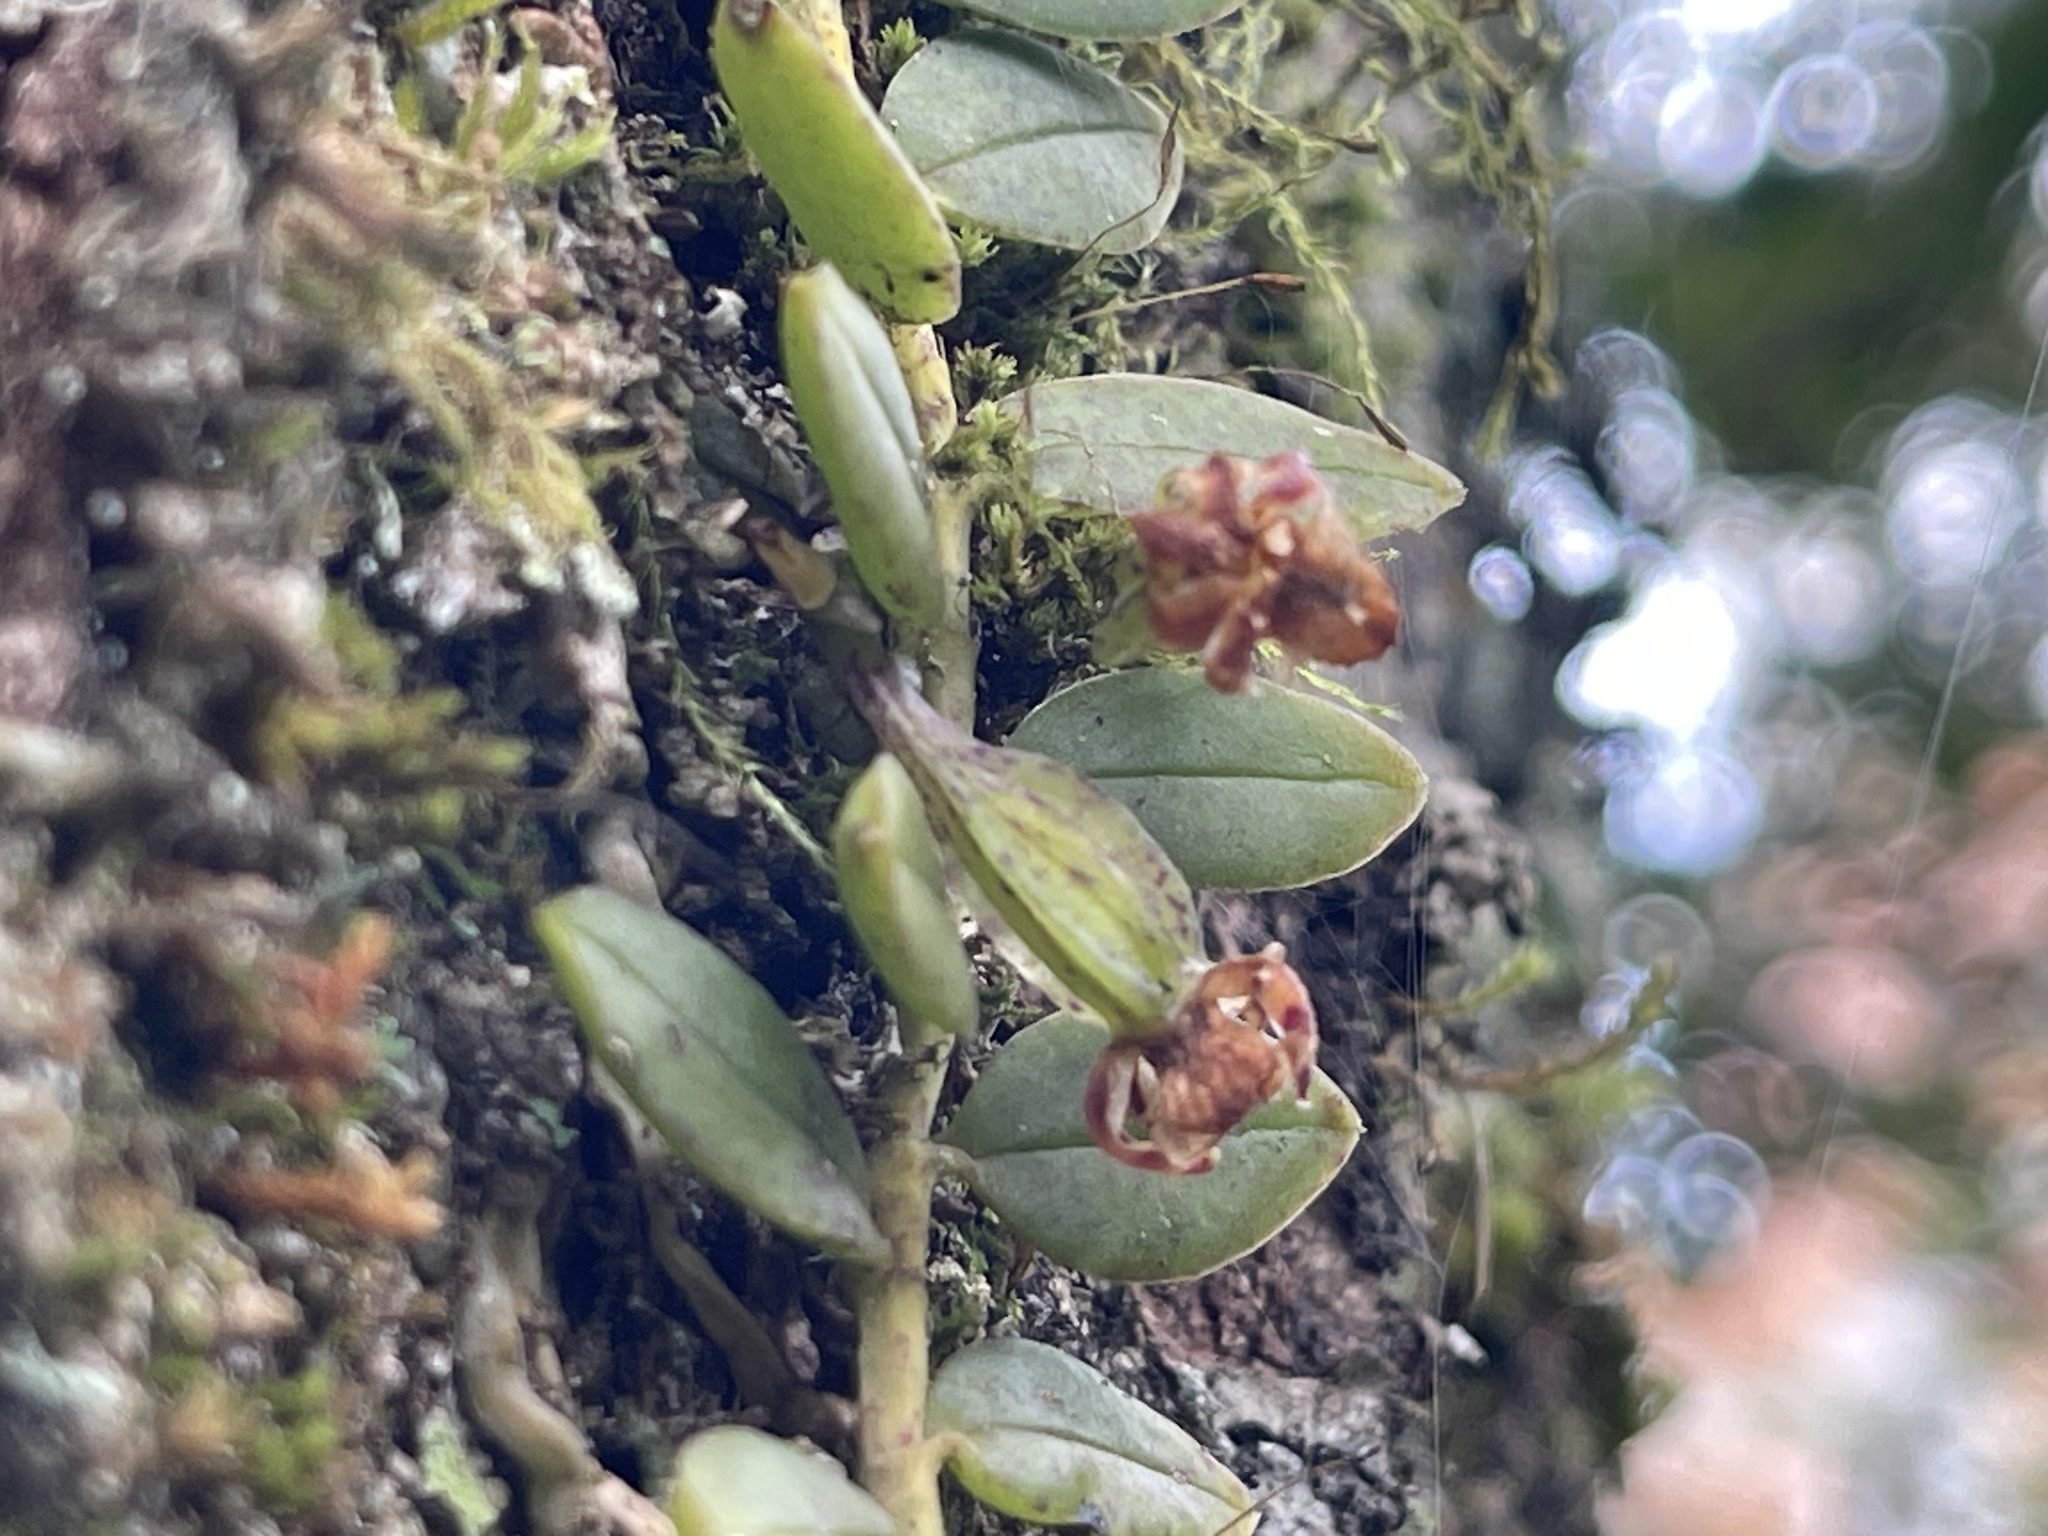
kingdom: Plantae
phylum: Tracheophyta
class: Liliopsida
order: Asparagales
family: Orchidaceae
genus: Gastrochilus
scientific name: Gastrochilus formosanus
